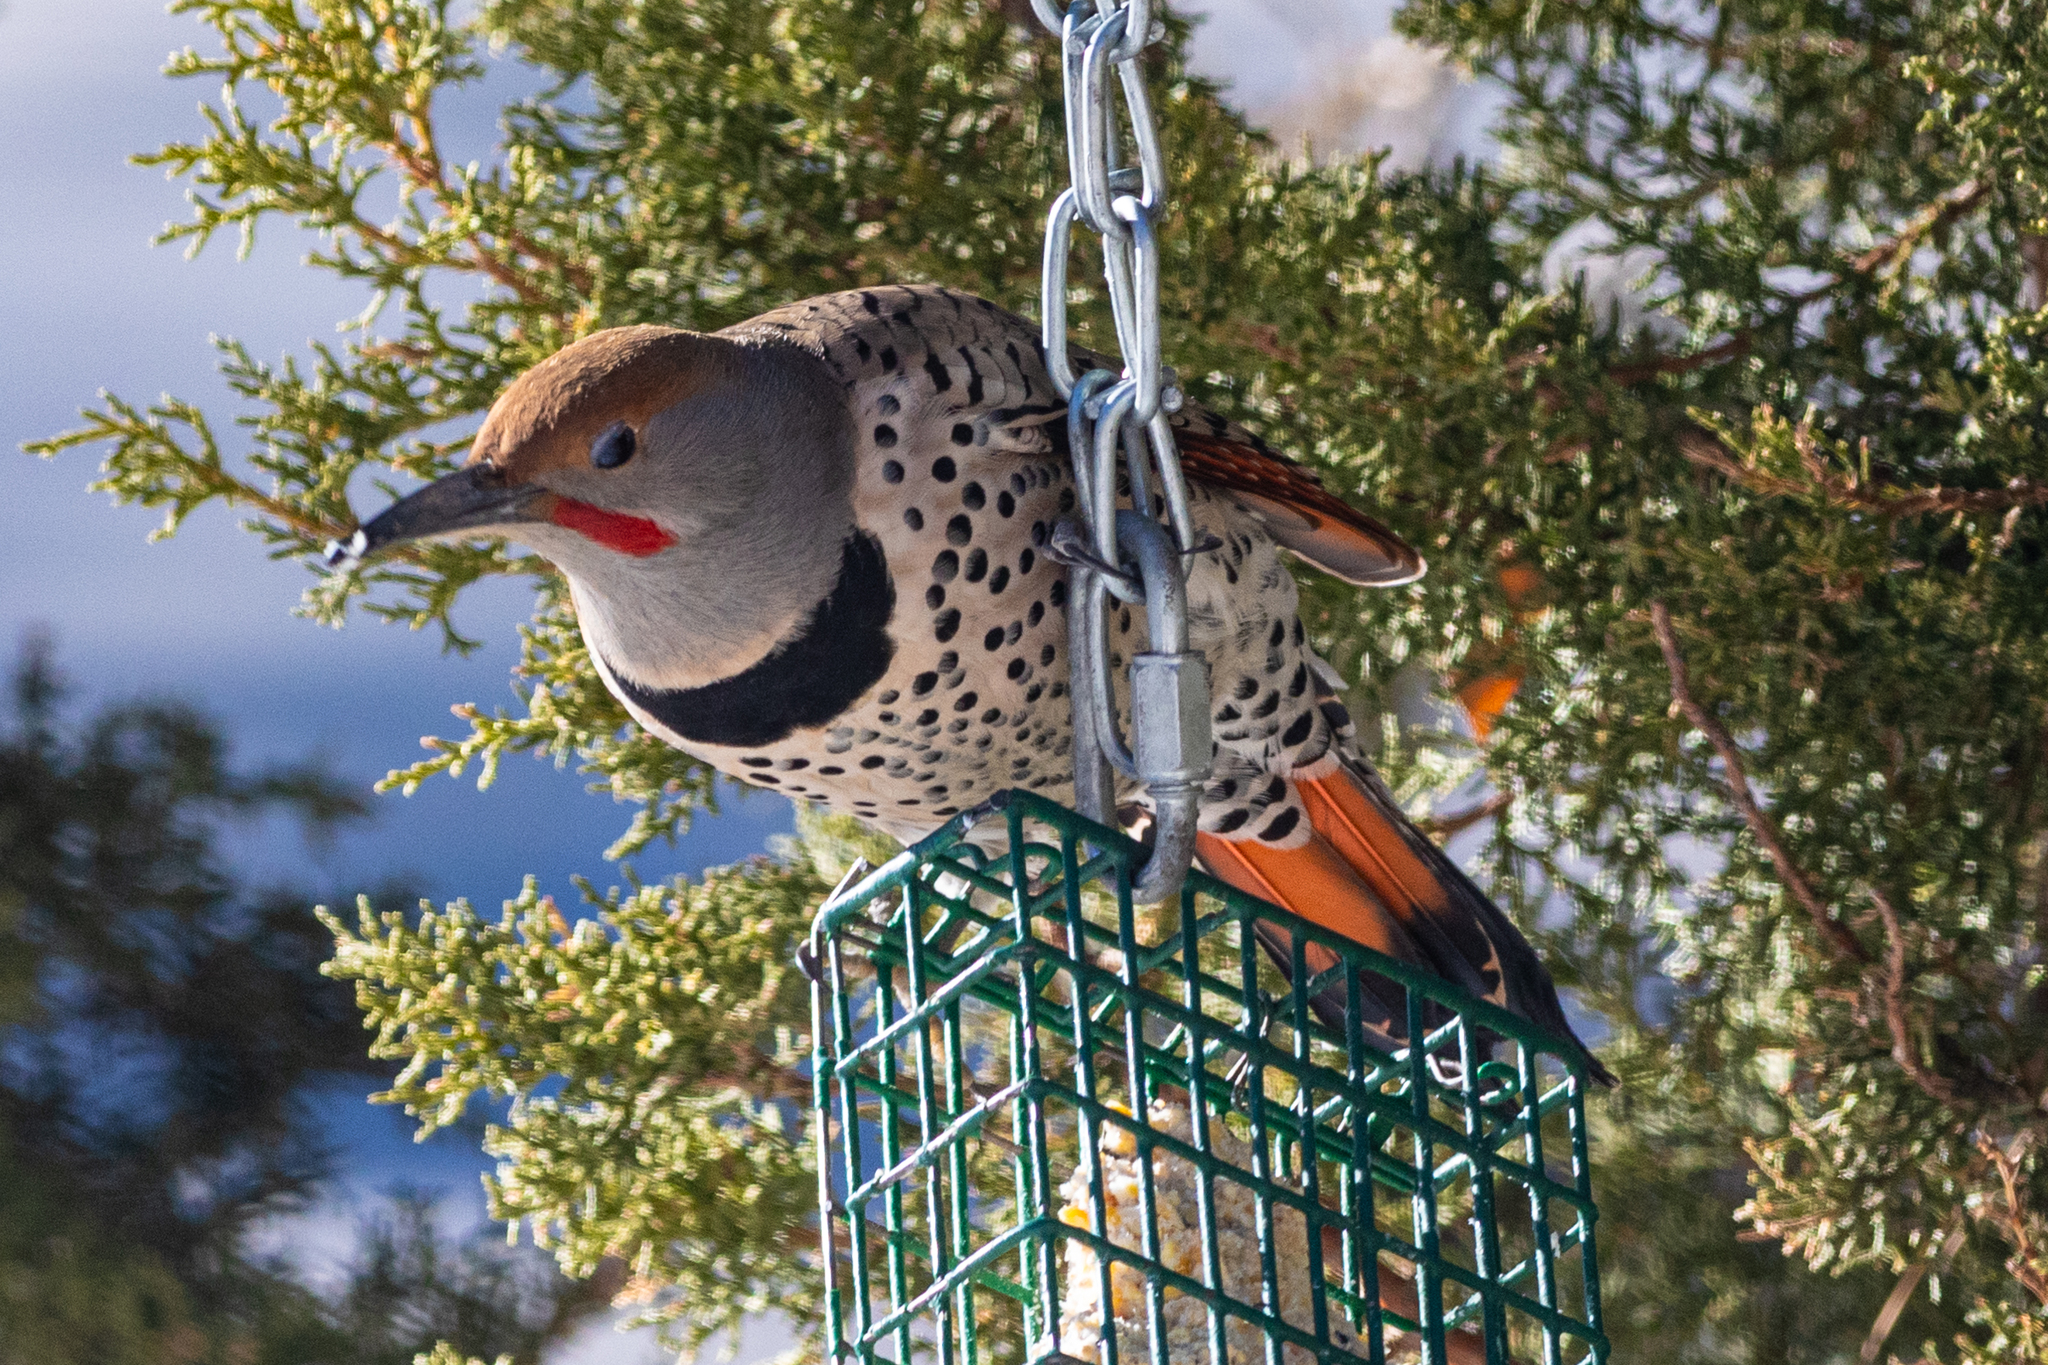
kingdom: Animalia
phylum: Chordata
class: Aves
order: Piciformes
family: Picidae
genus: Colaptes
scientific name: Colaptes auratus
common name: Northern flicker
